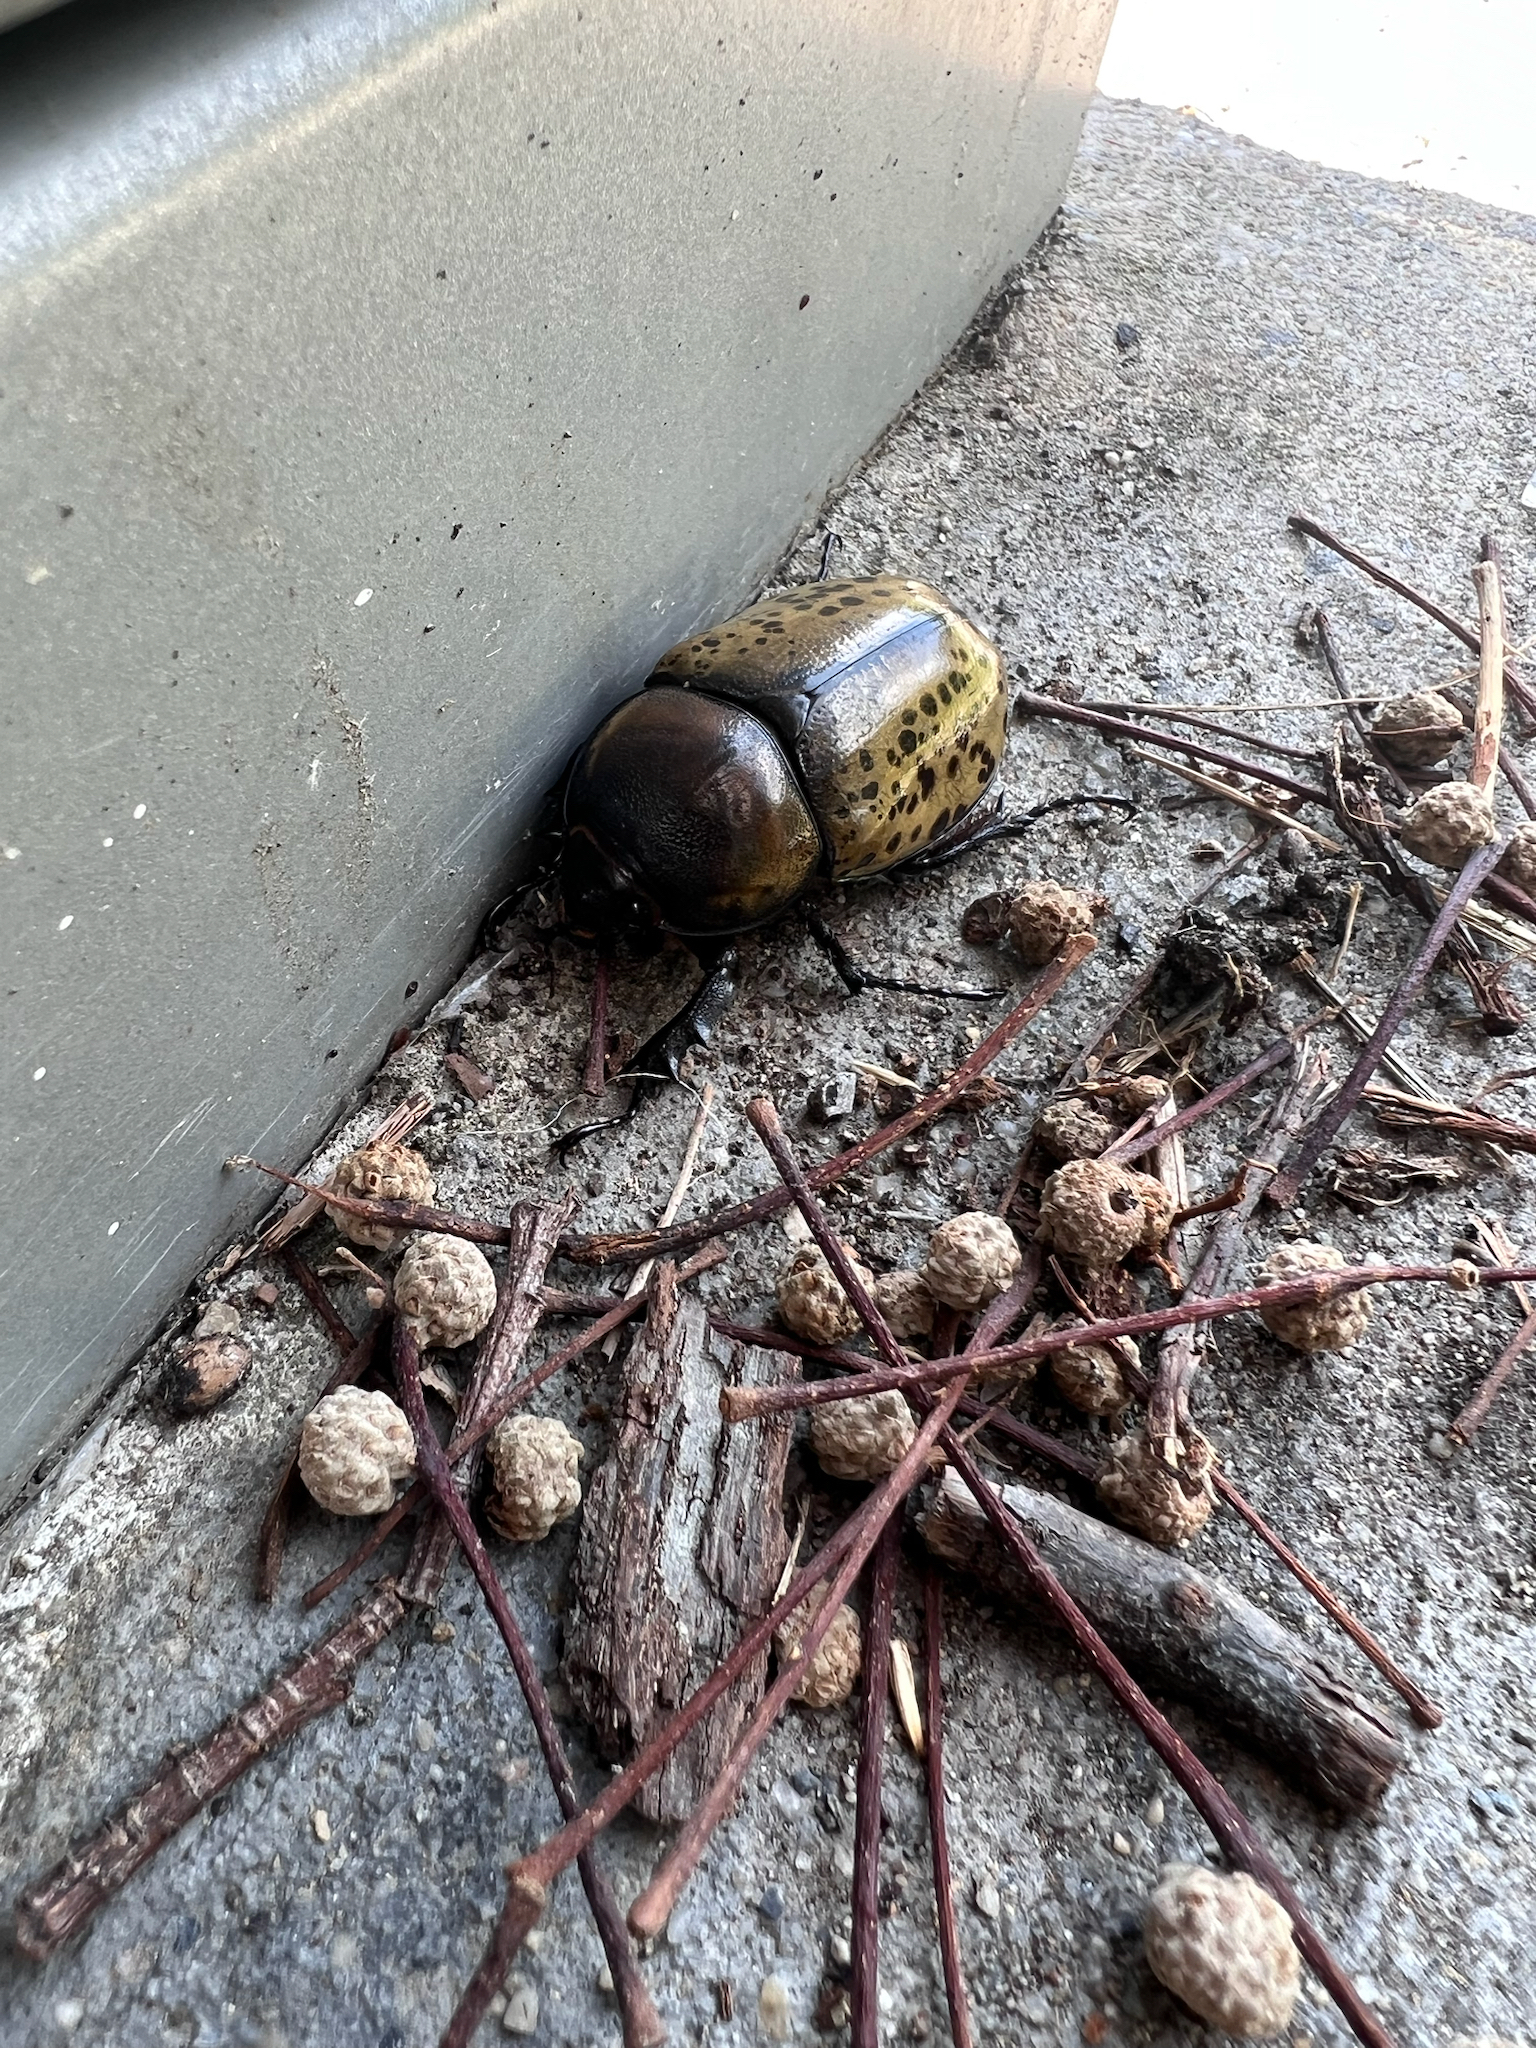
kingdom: Animalia
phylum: Arthropoda
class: Insecta
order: Coleoptera
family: Scarabaeidae
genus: Dynastes
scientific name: Dynastes tityus
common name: Eastern hercules beetle
